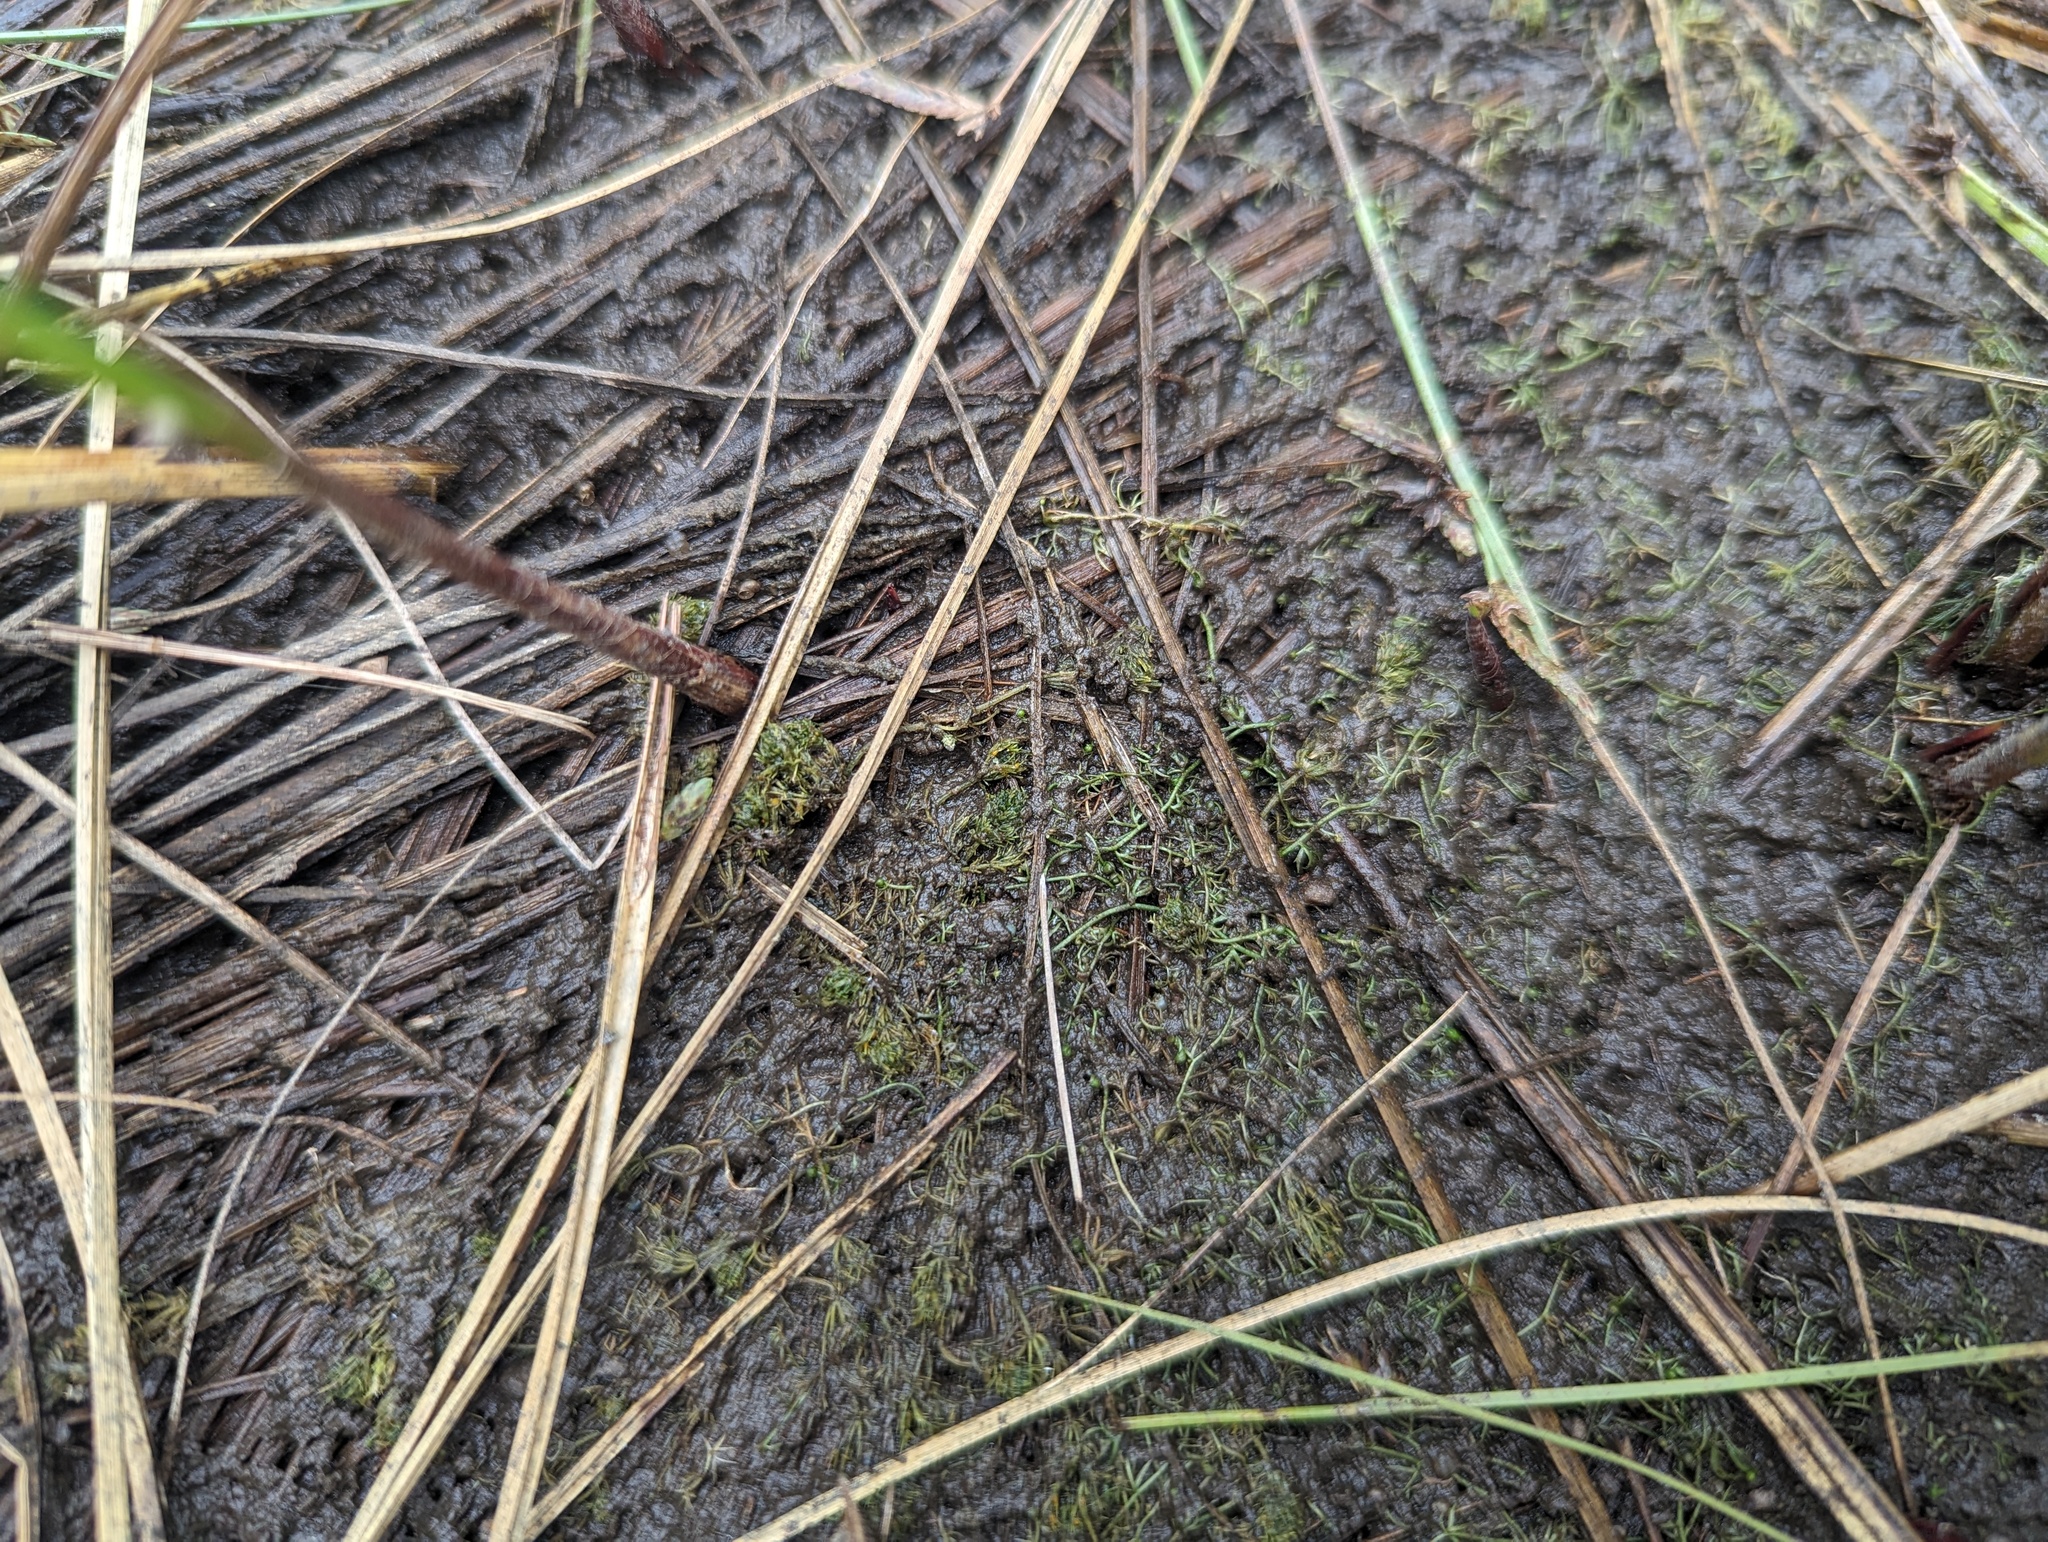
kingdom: Plantae
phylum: Tracheophyta
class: Magnoliopsida
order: Lamiales
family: Lentibulariaceae
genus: Utricularia
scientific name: Utricularia minor
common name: Lesser bladderwort
